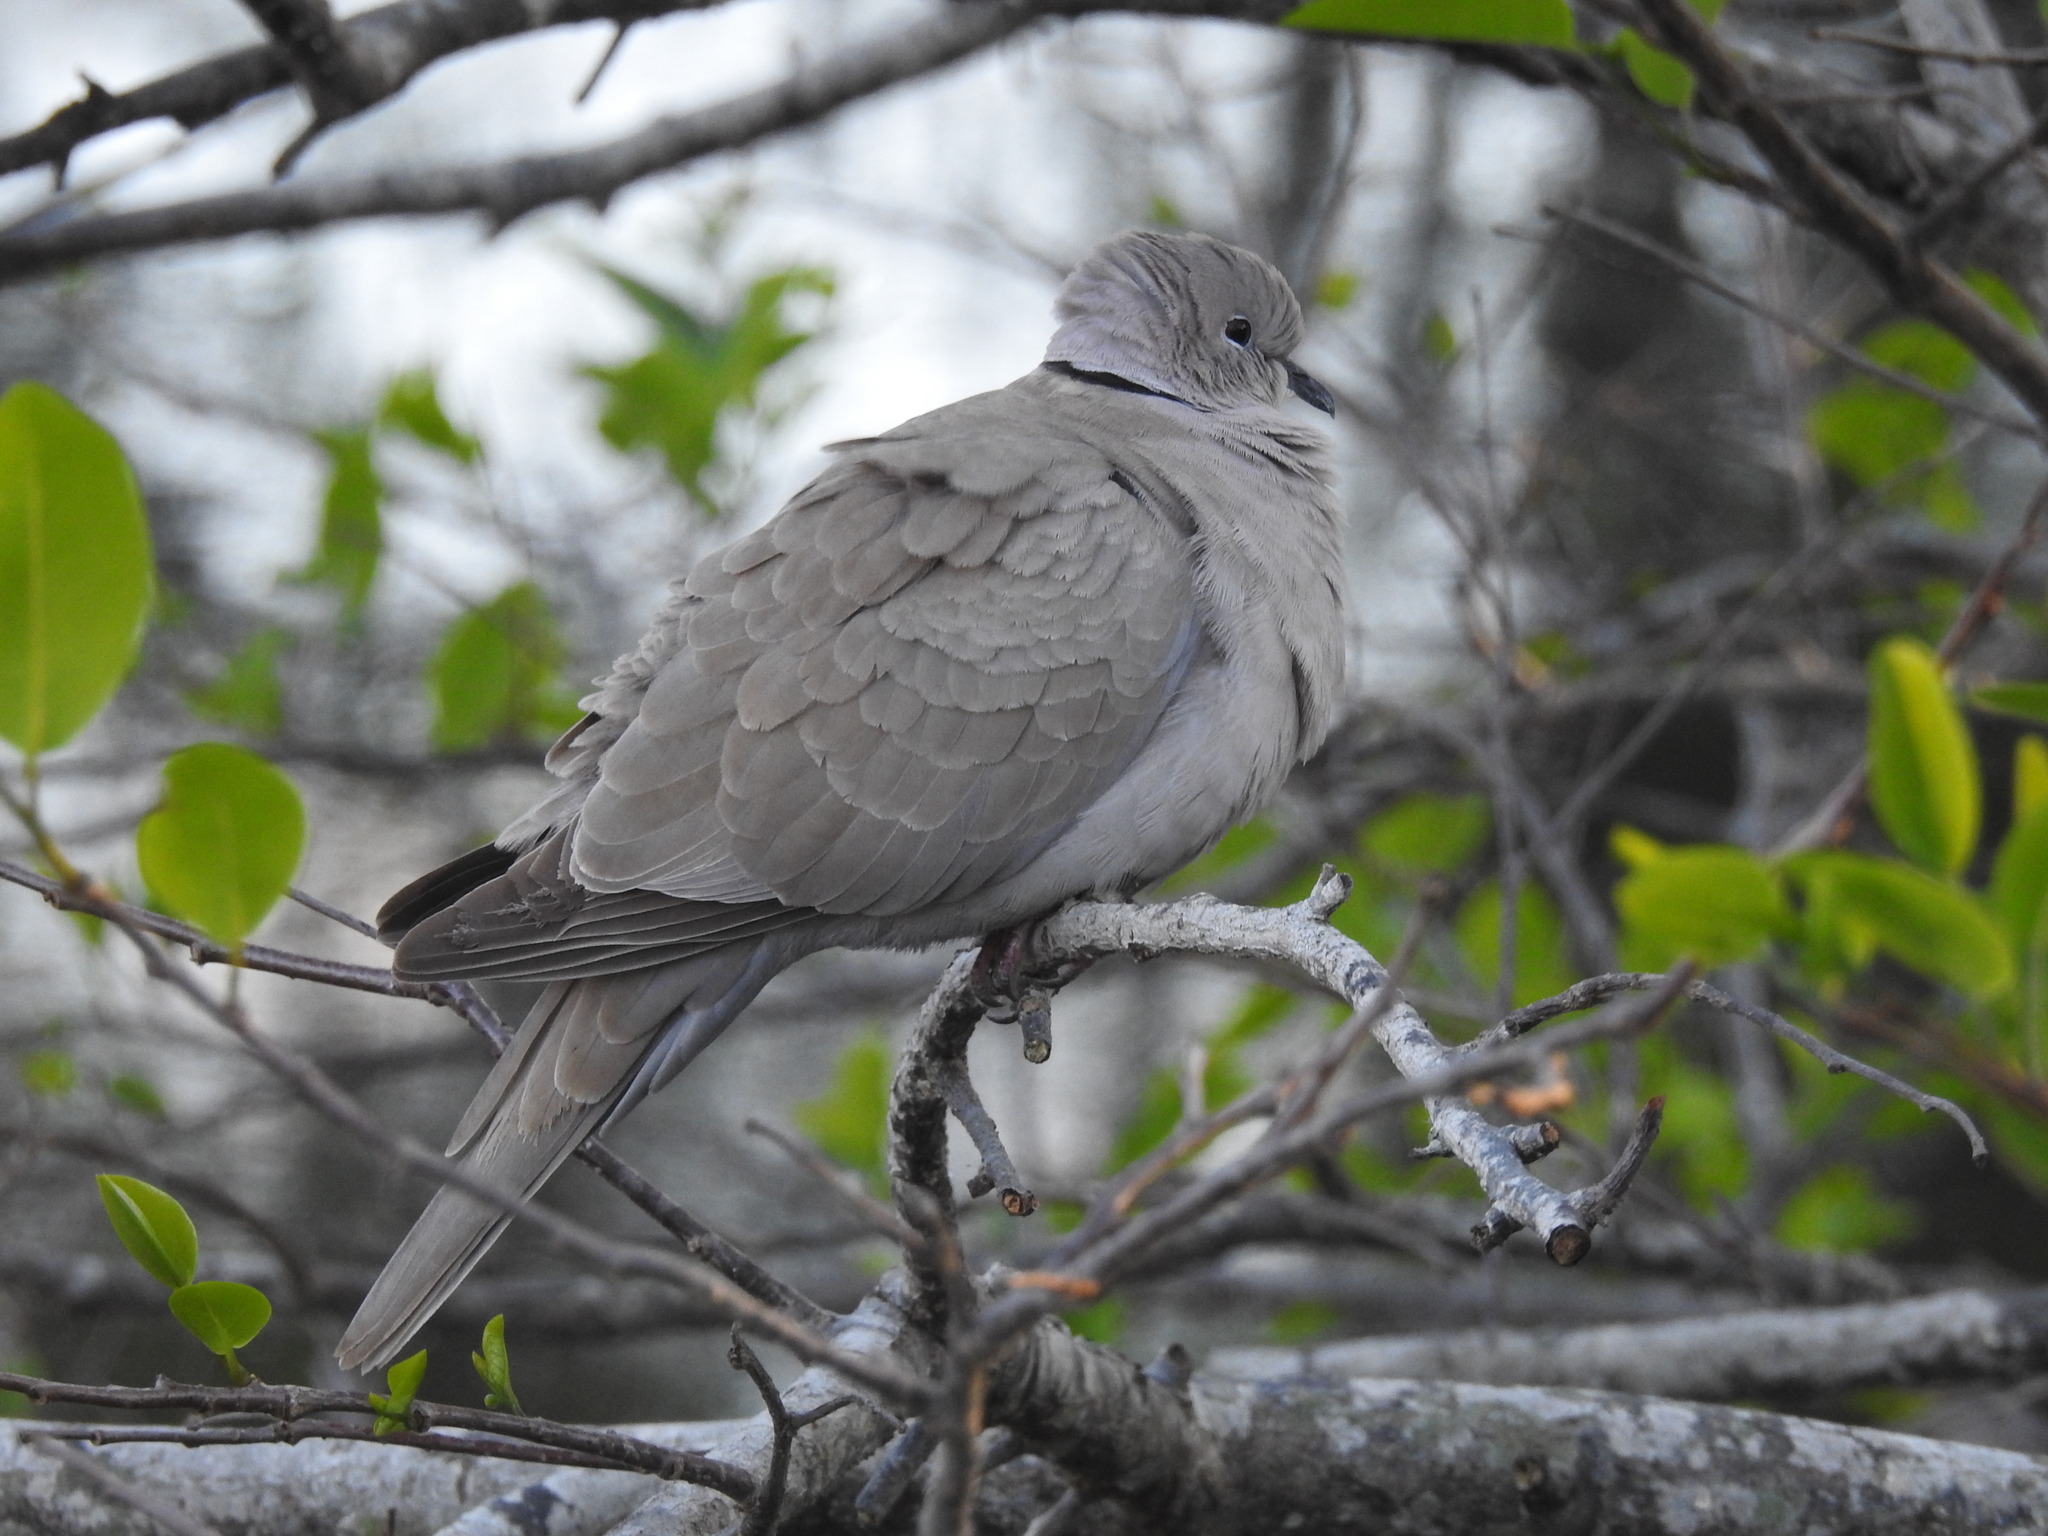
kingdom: Animalia
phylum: Chordata
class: Aves
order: Columbiformes
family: Columbidae
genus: Streptopelia
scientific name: Streptopelia decaocto
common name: Eurasian collared dove
